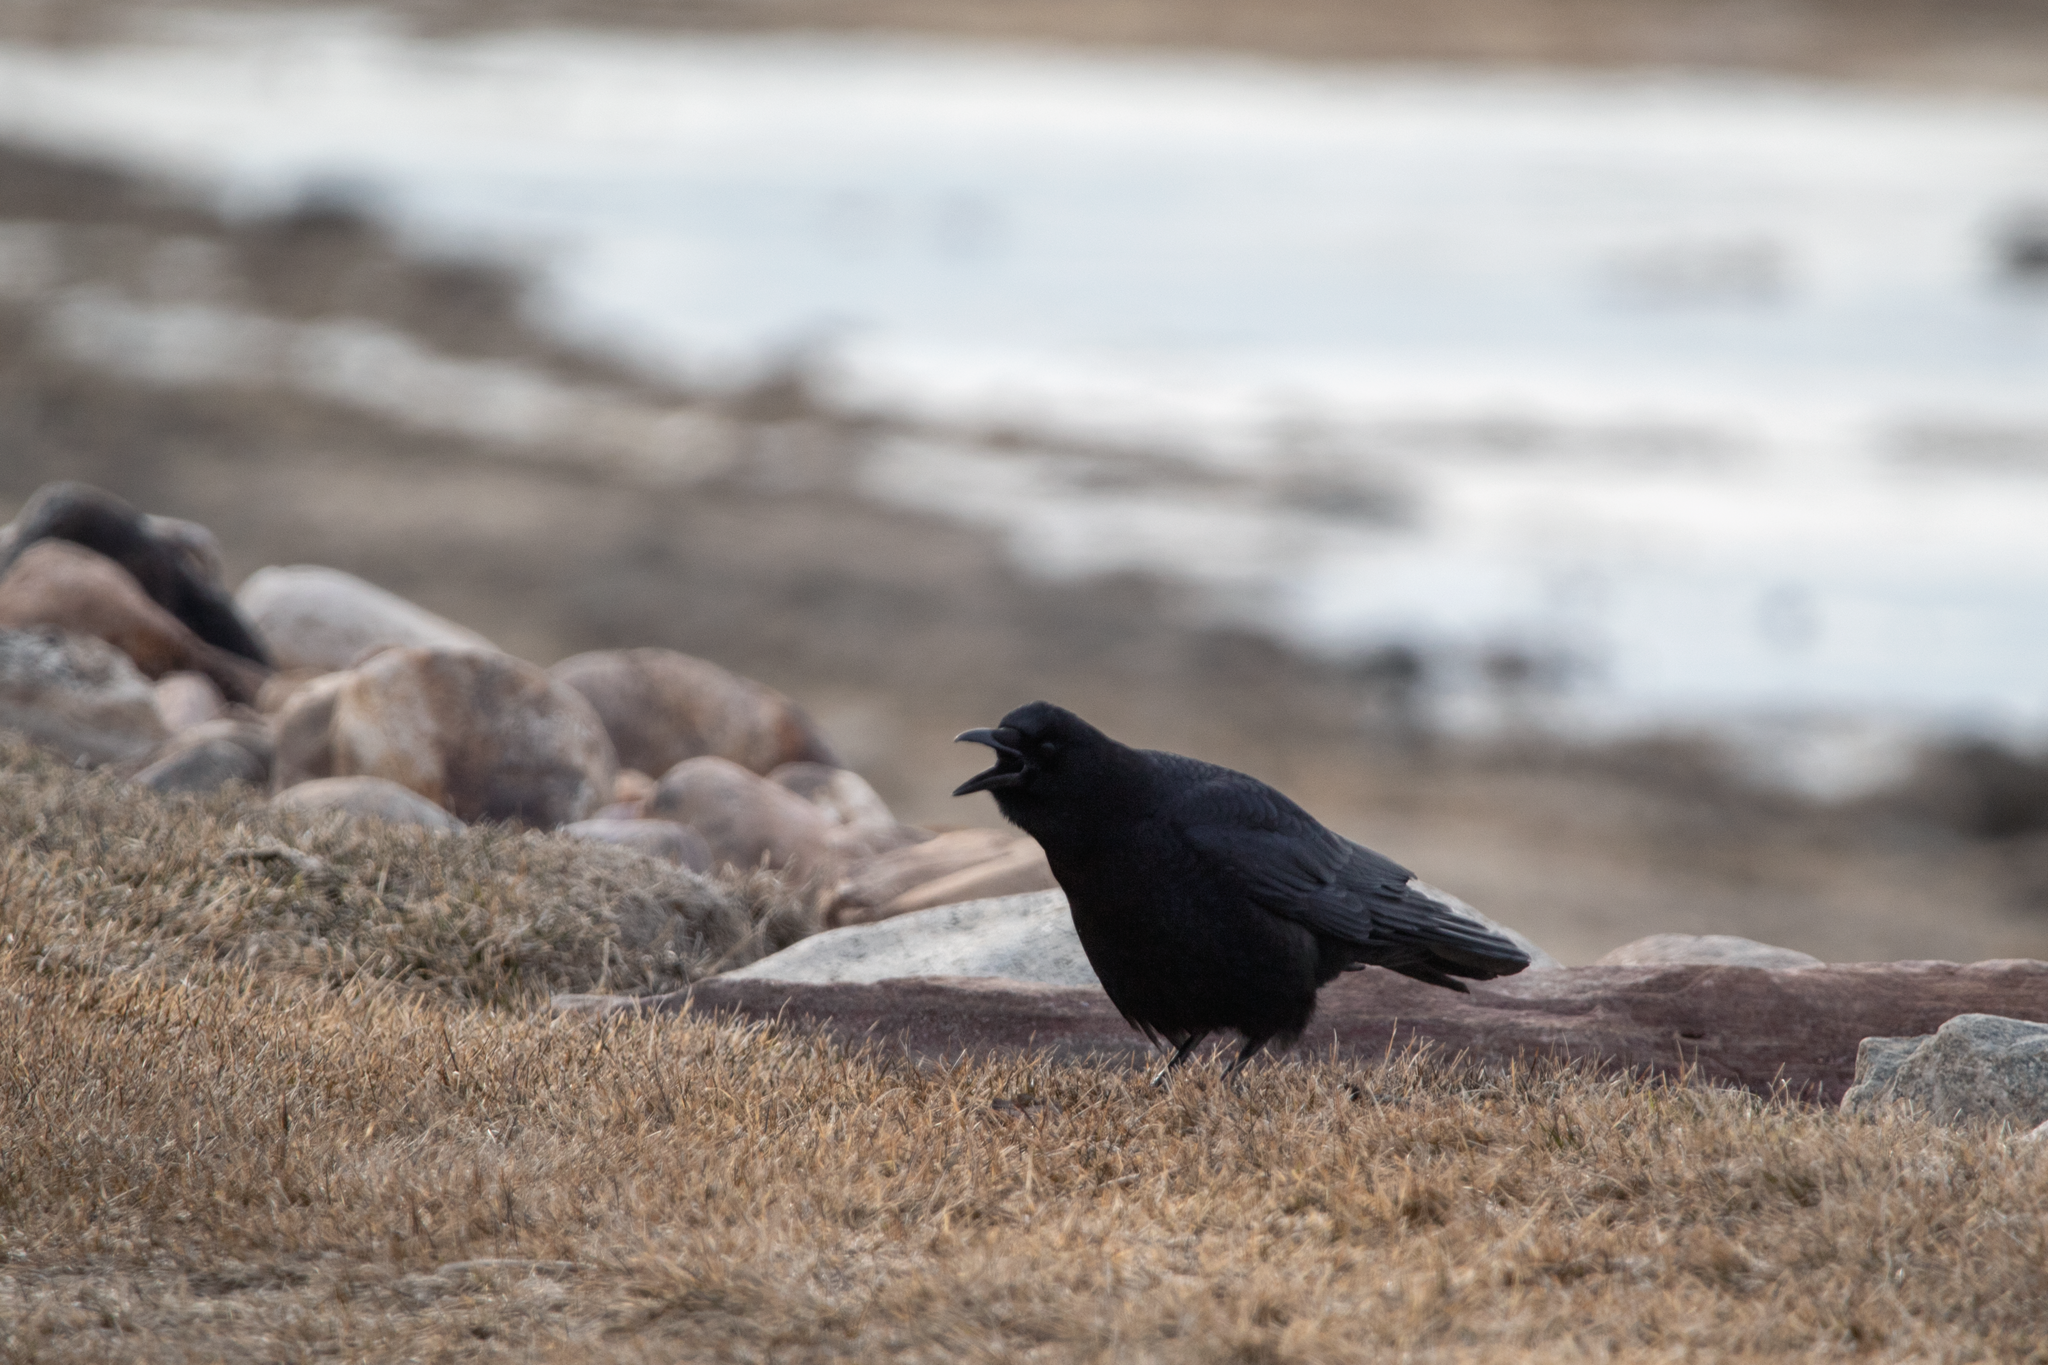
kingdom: Animalia
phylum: Chordata
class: Aves
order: Passeriformes
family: Corvidae
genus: Corvus
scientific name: Corvus brachyrhynchos
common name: American crow
